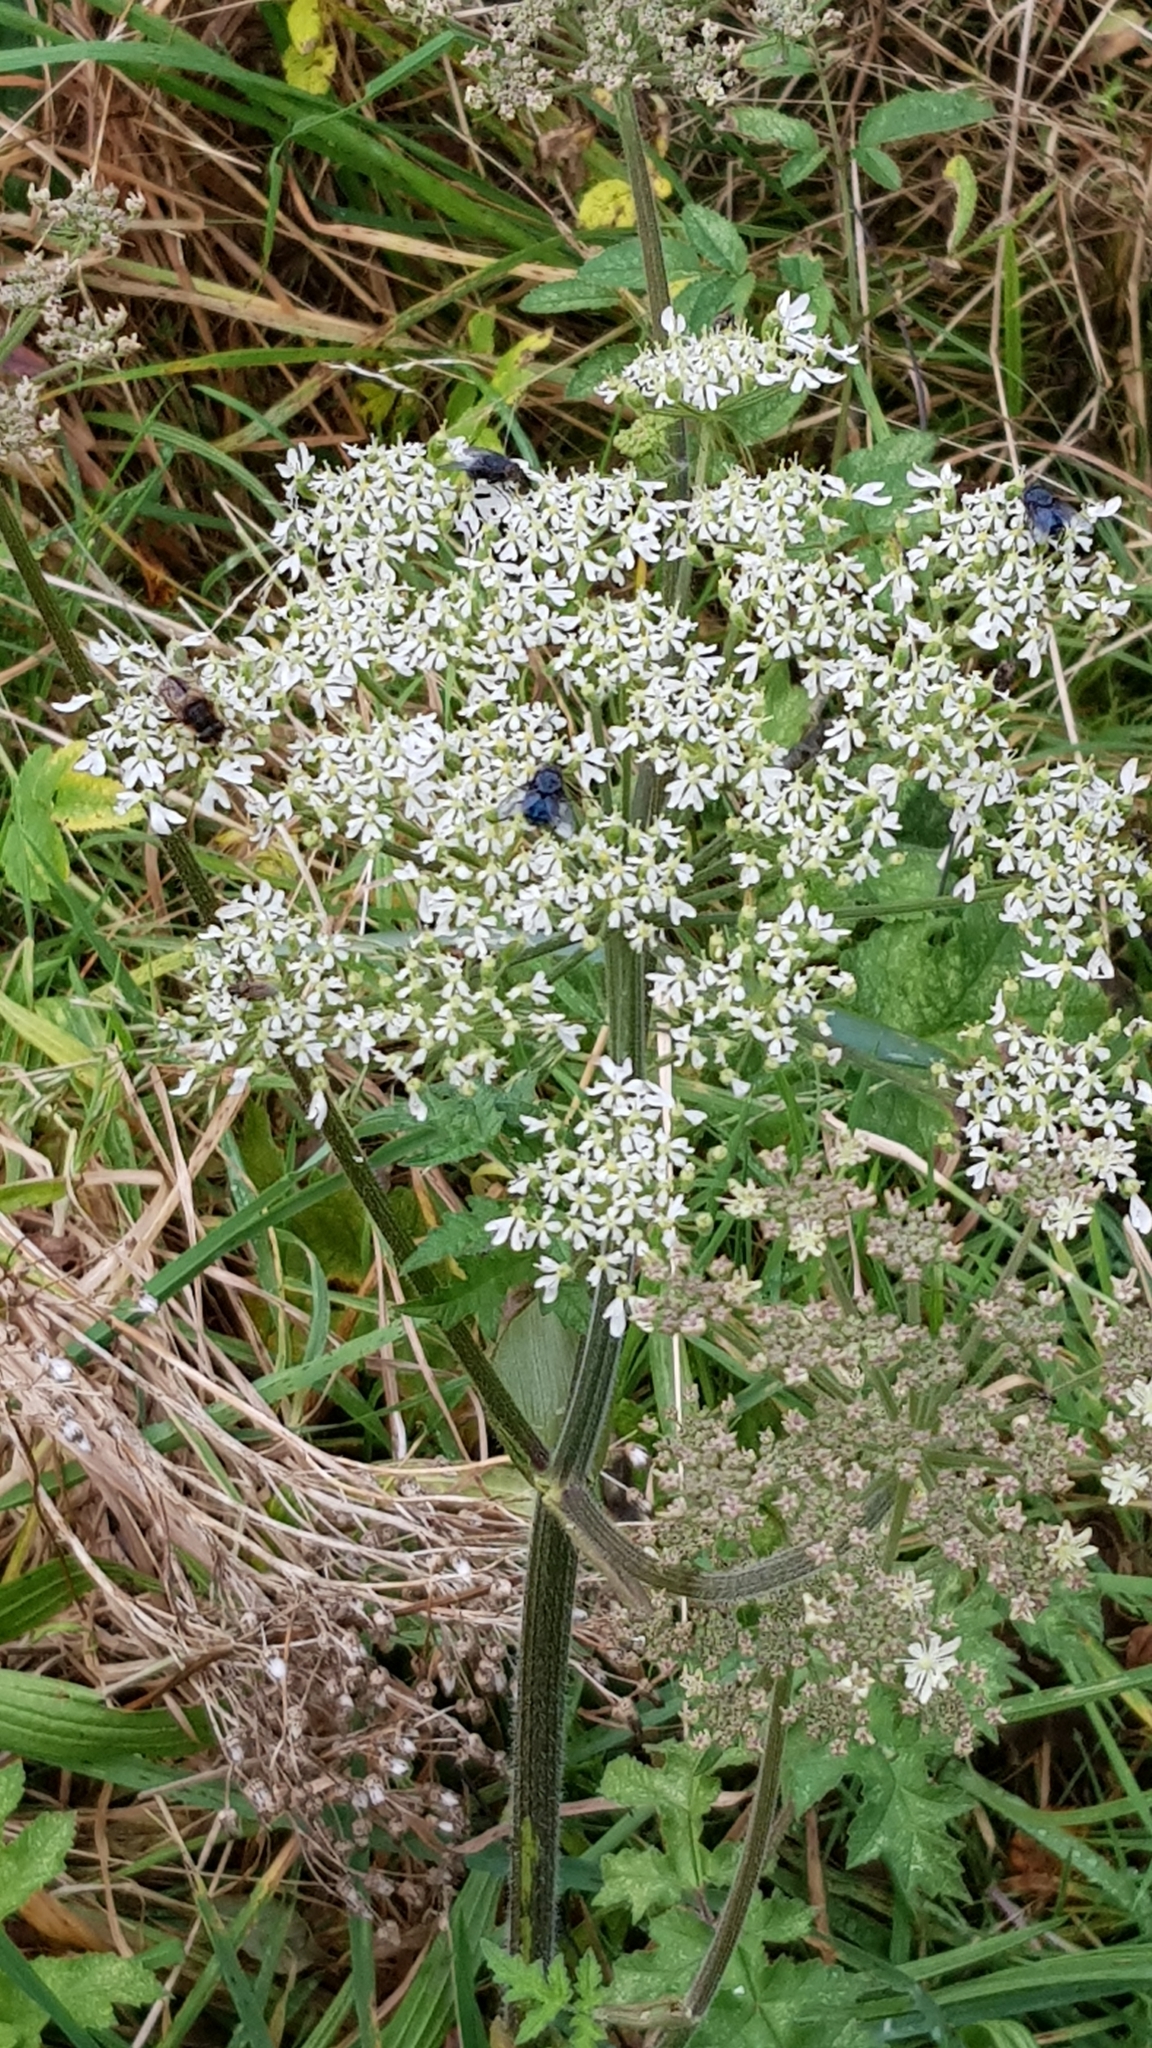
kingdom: Plantae
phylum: Tracheophyta
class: Magnoliopsida
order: Apiales
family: Apiaceae
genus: Heracleum
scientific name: Heracleum sphondylium
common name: Hogweed
